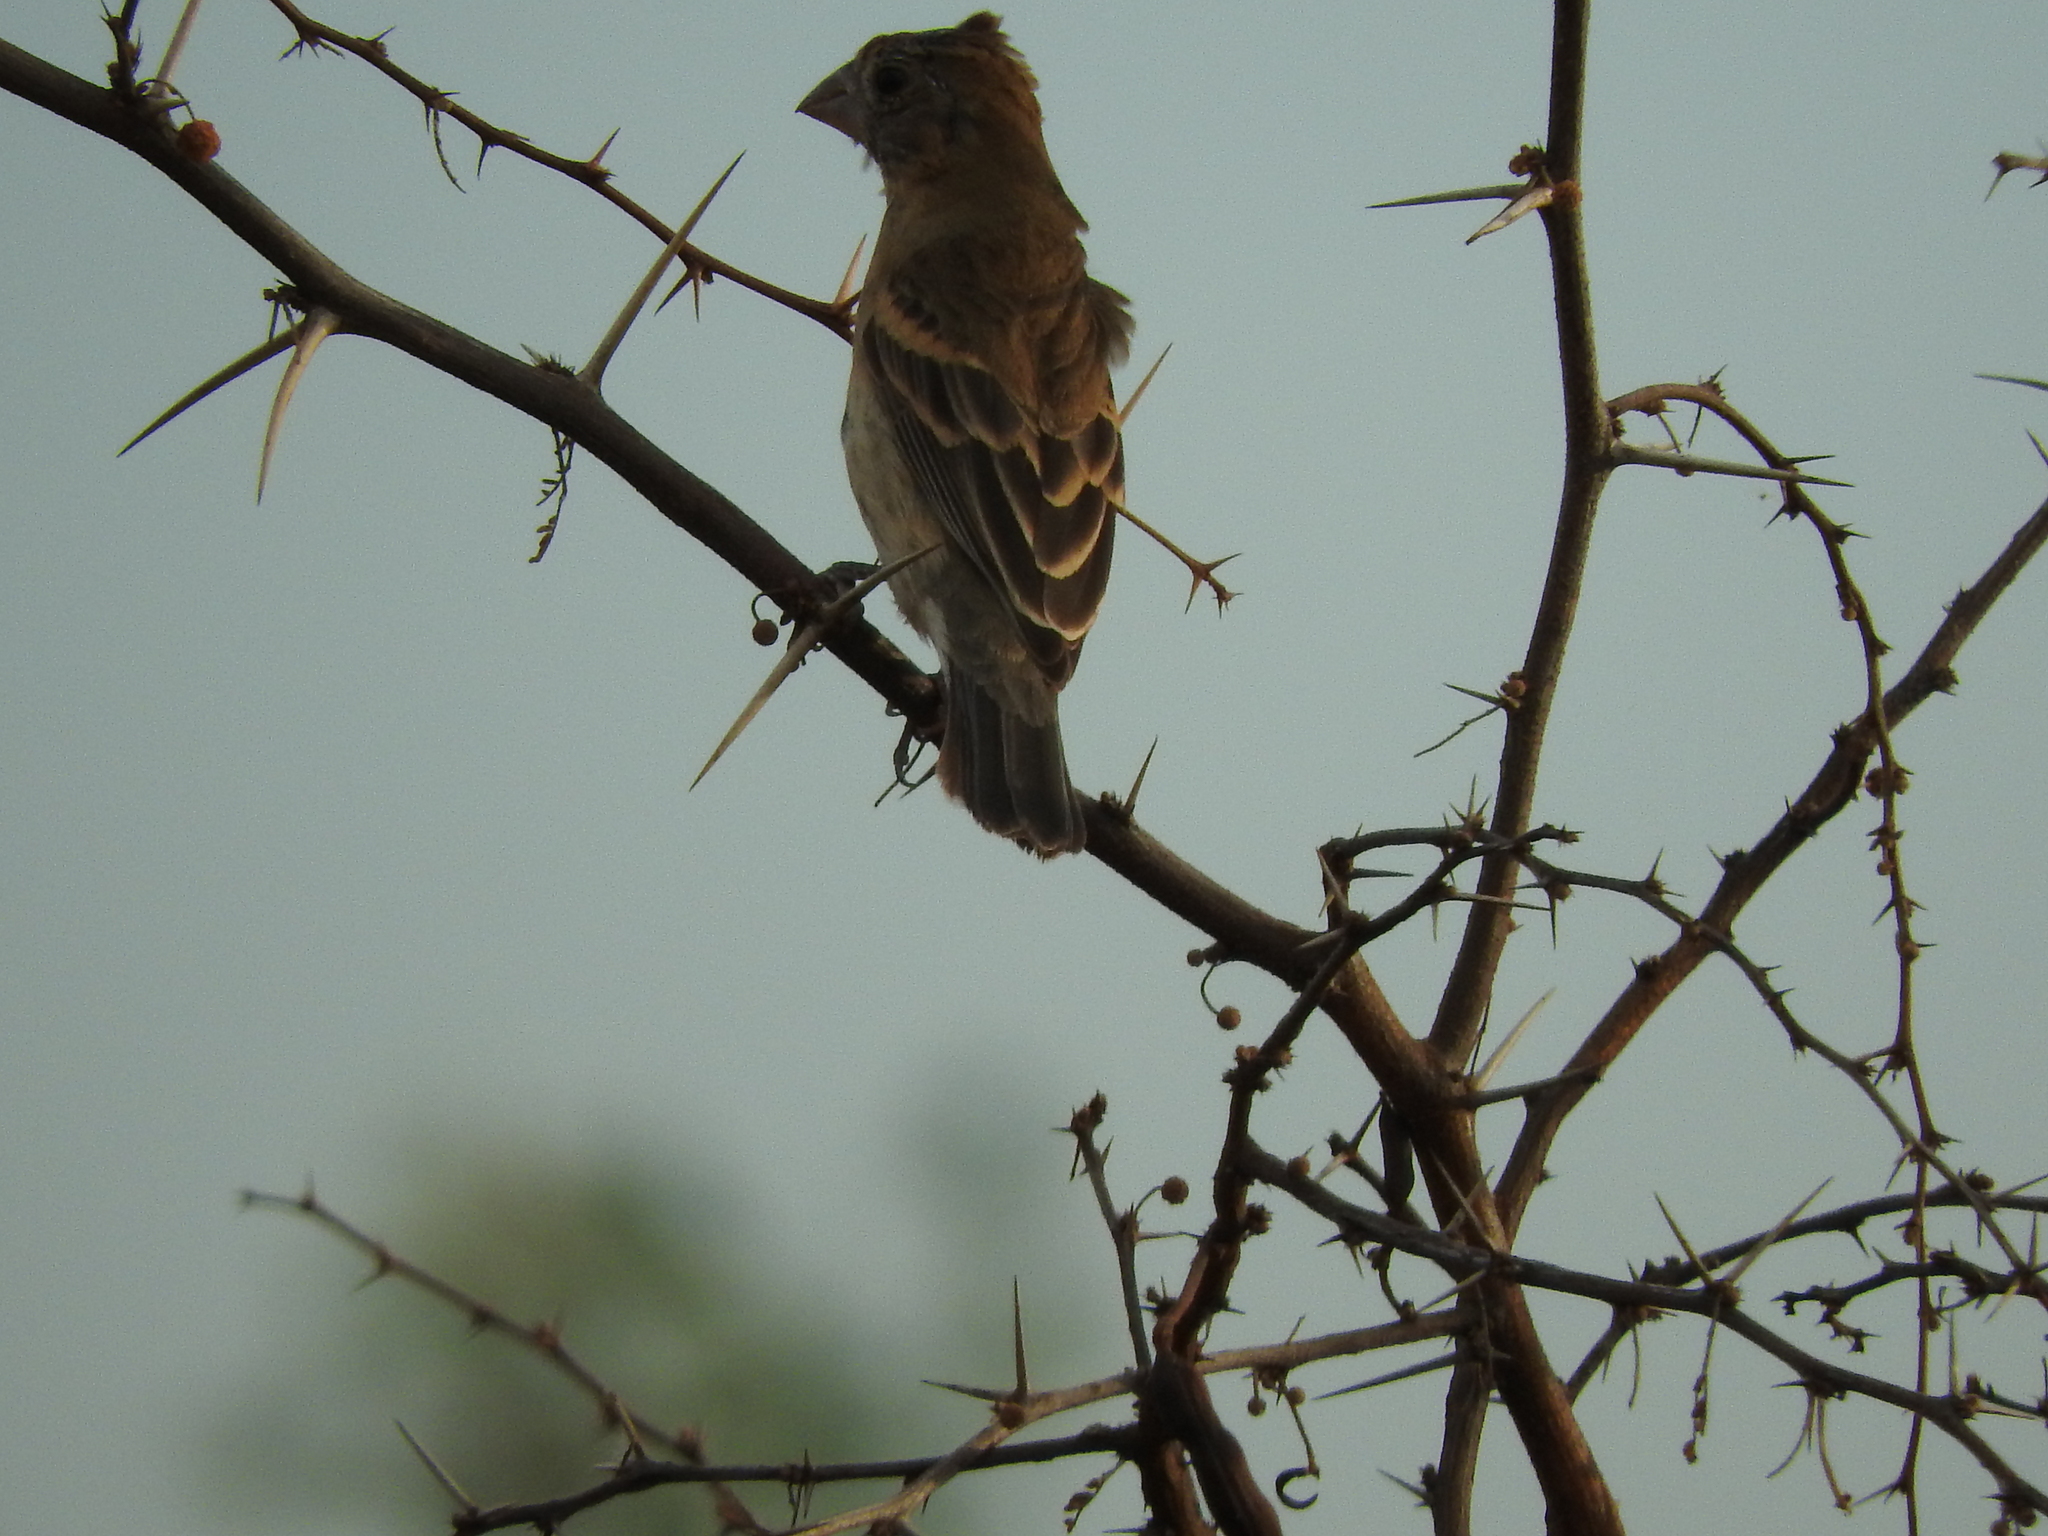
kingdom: Animalia
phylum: Chordata
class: Aves
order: Passeriformes
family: Cardinalidae
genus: Passerina
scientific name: Passerina caerulea
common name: Blue grosbeak
